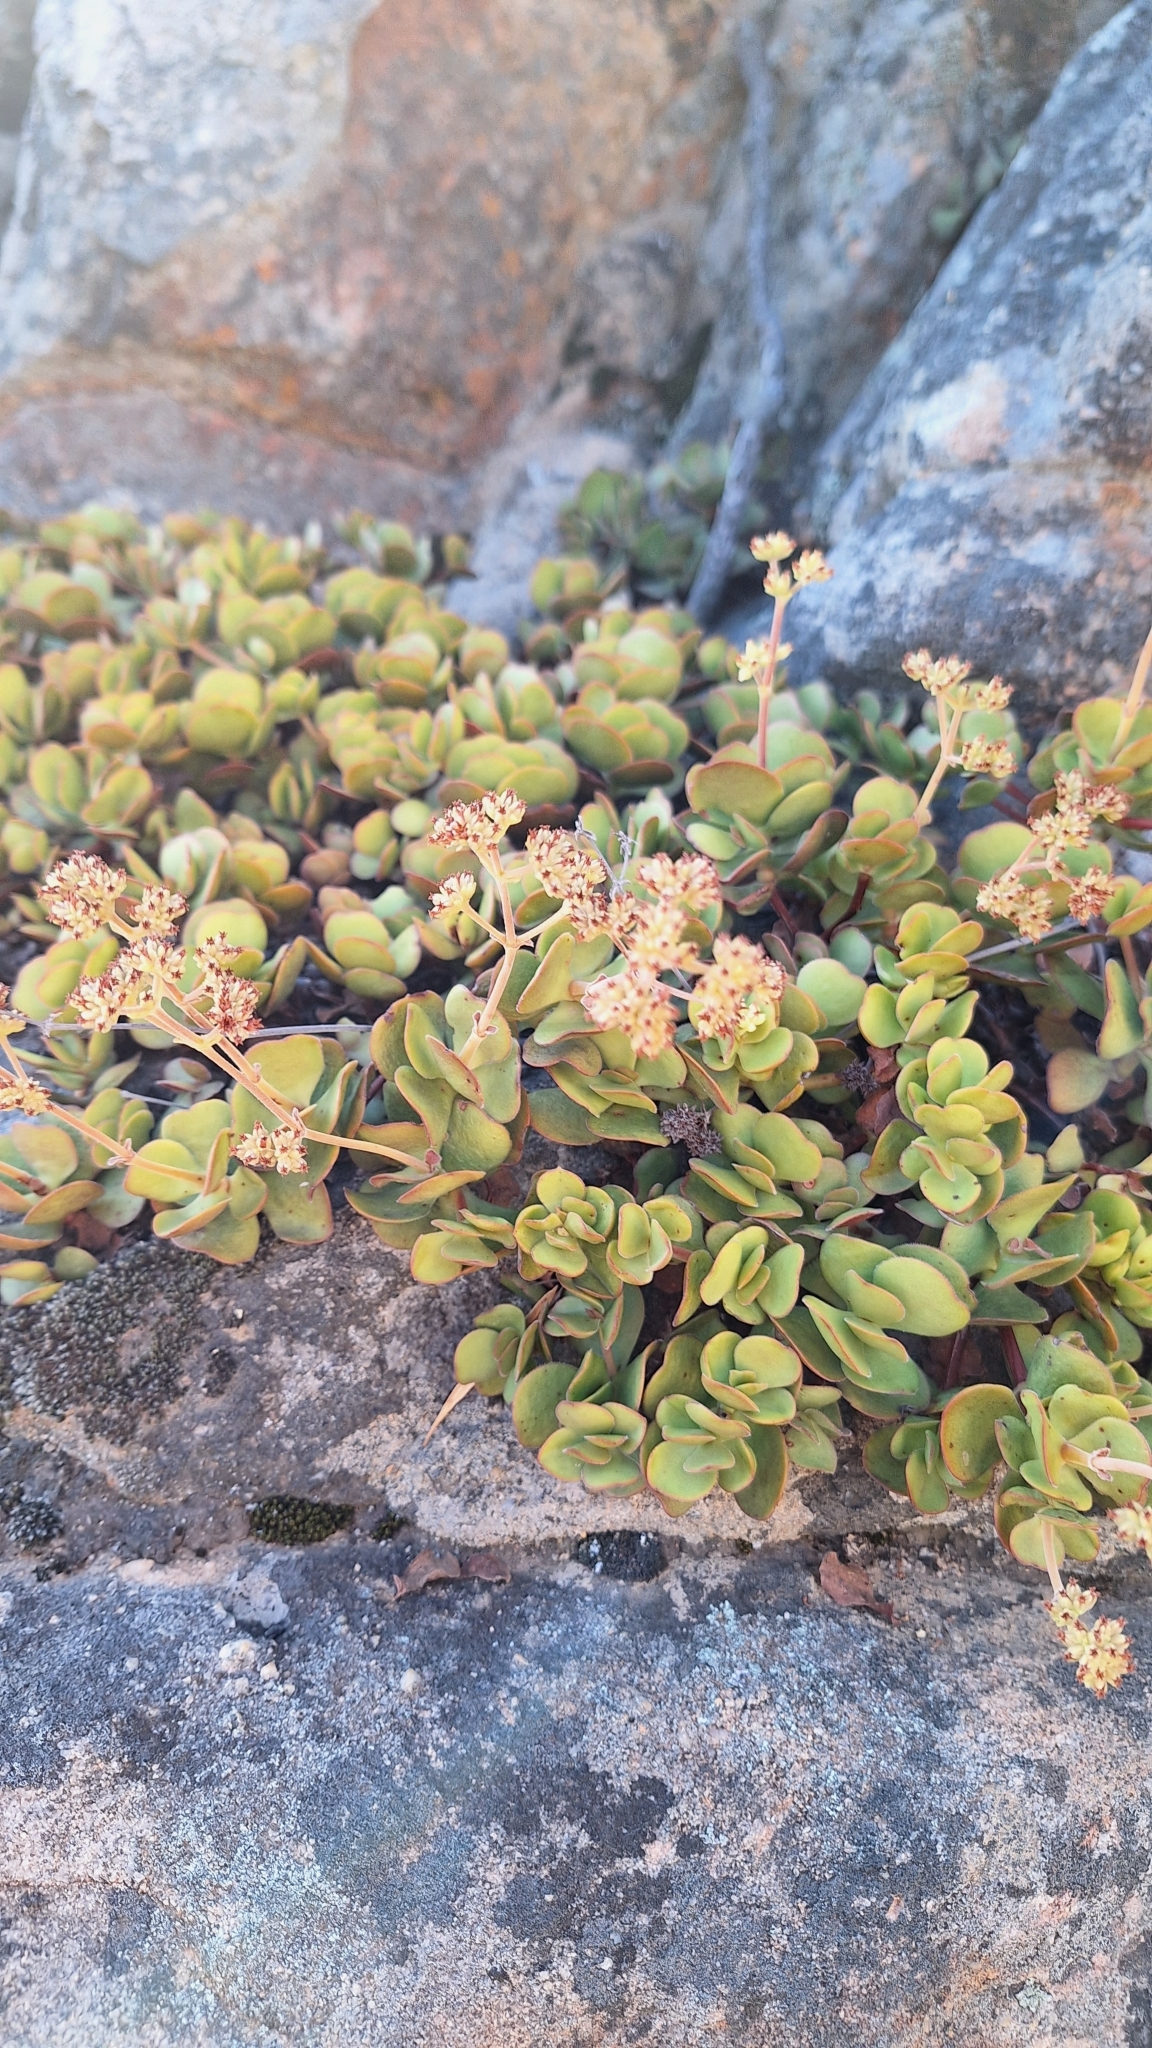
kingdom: Plantae
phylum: Tracheophyta
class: Magnoliopsida
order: Saxifragales
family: Crassulaceae
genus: Crassula
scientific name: Crassula atropurpurea
